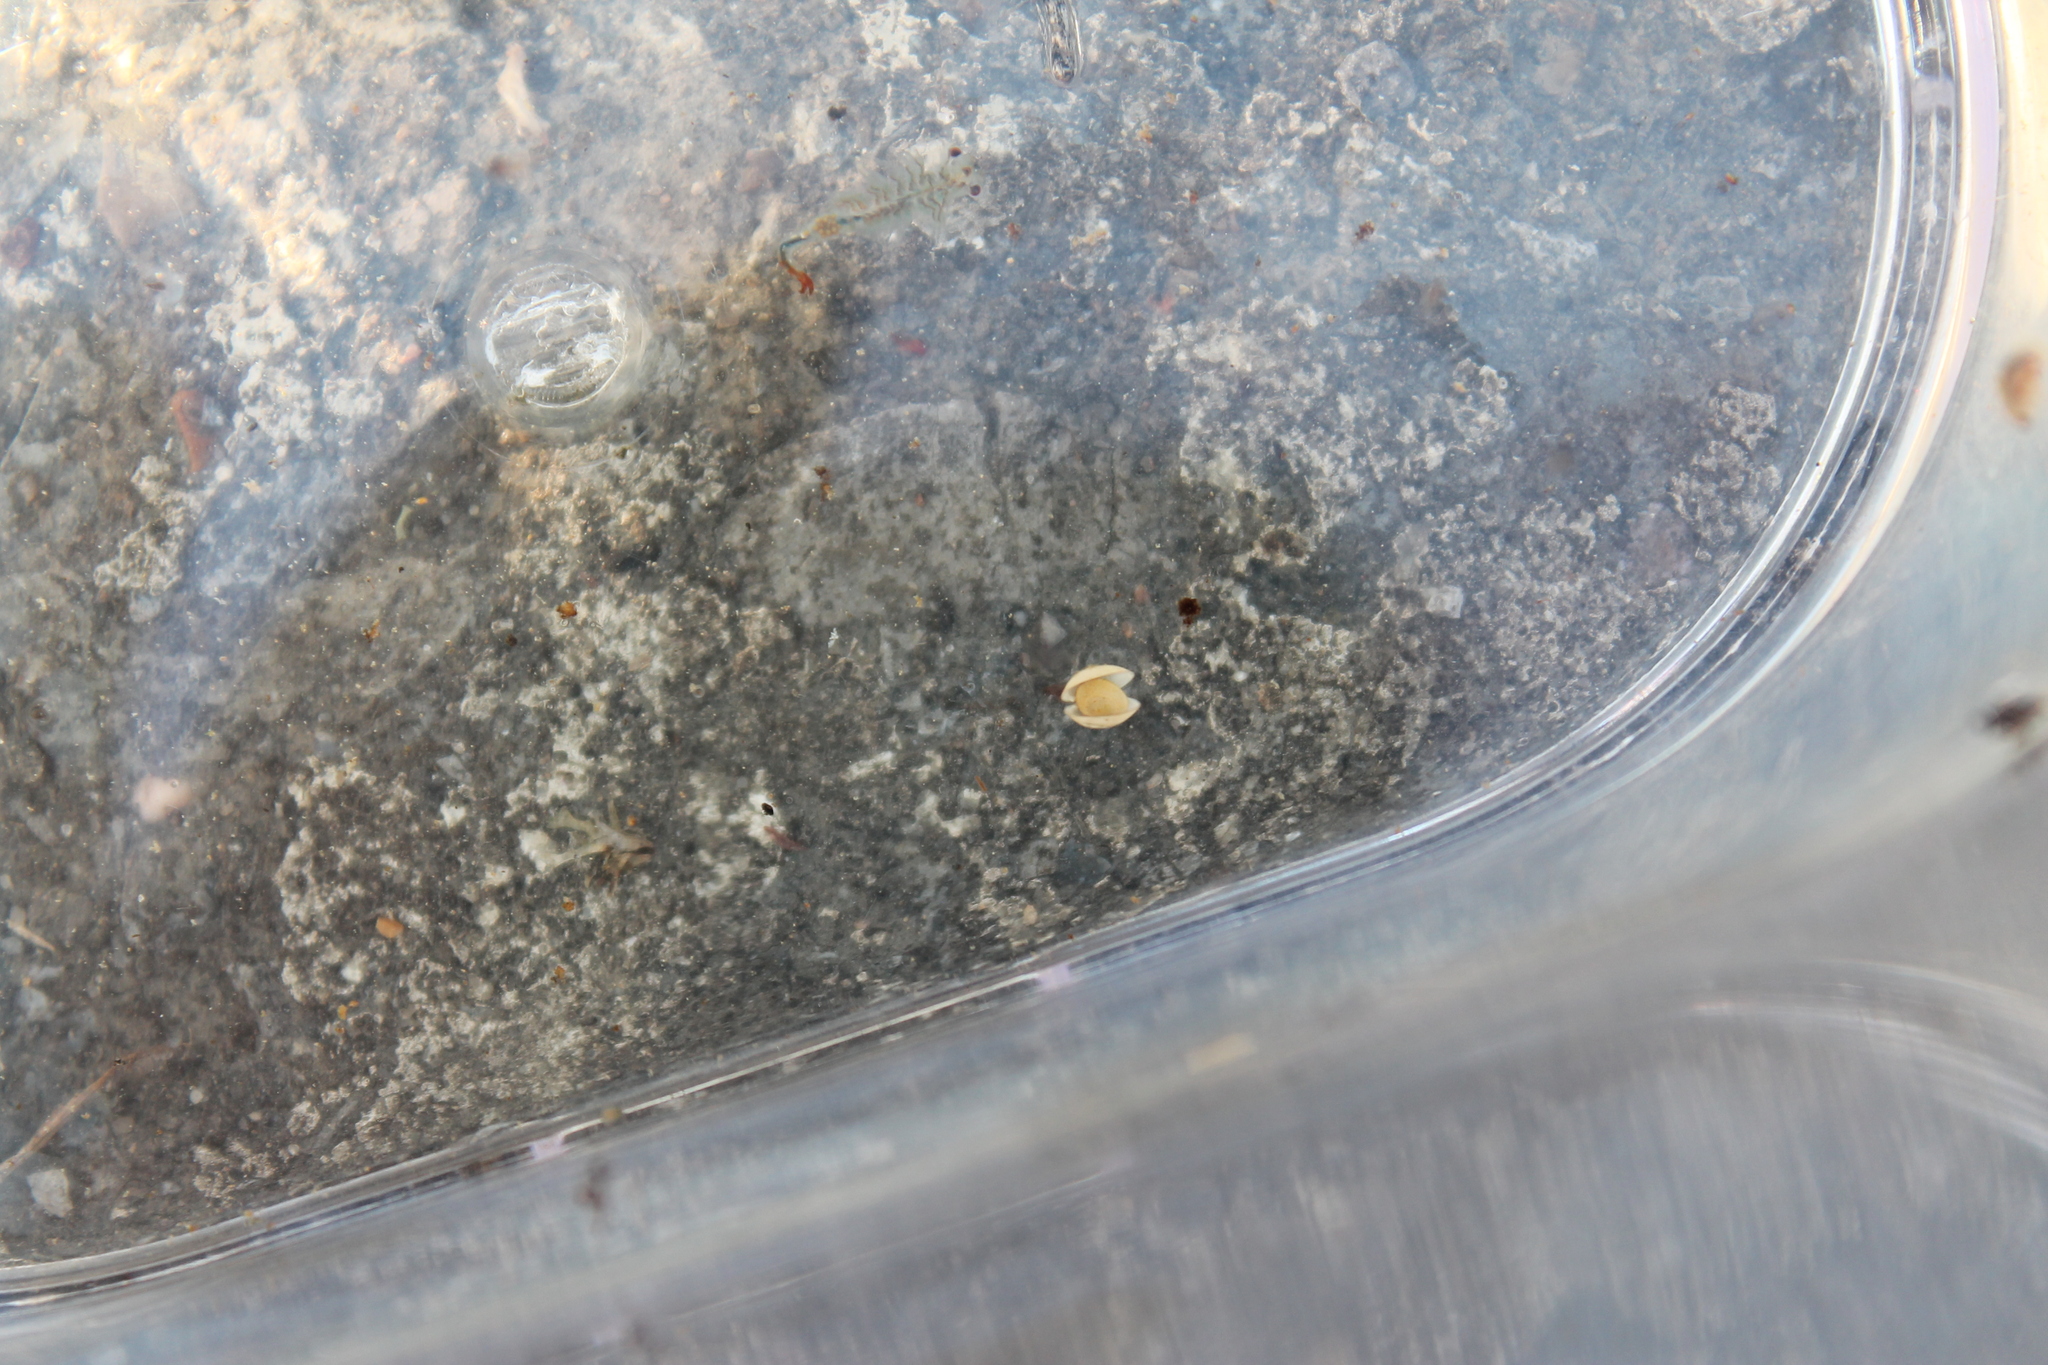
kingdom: Animalia
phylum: Mollusca
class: Bivalvia
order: Sphaeriida
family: Sphaeriidae
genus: Musculium
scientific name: Musculium partumeium
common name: Swamp fingernailclam
